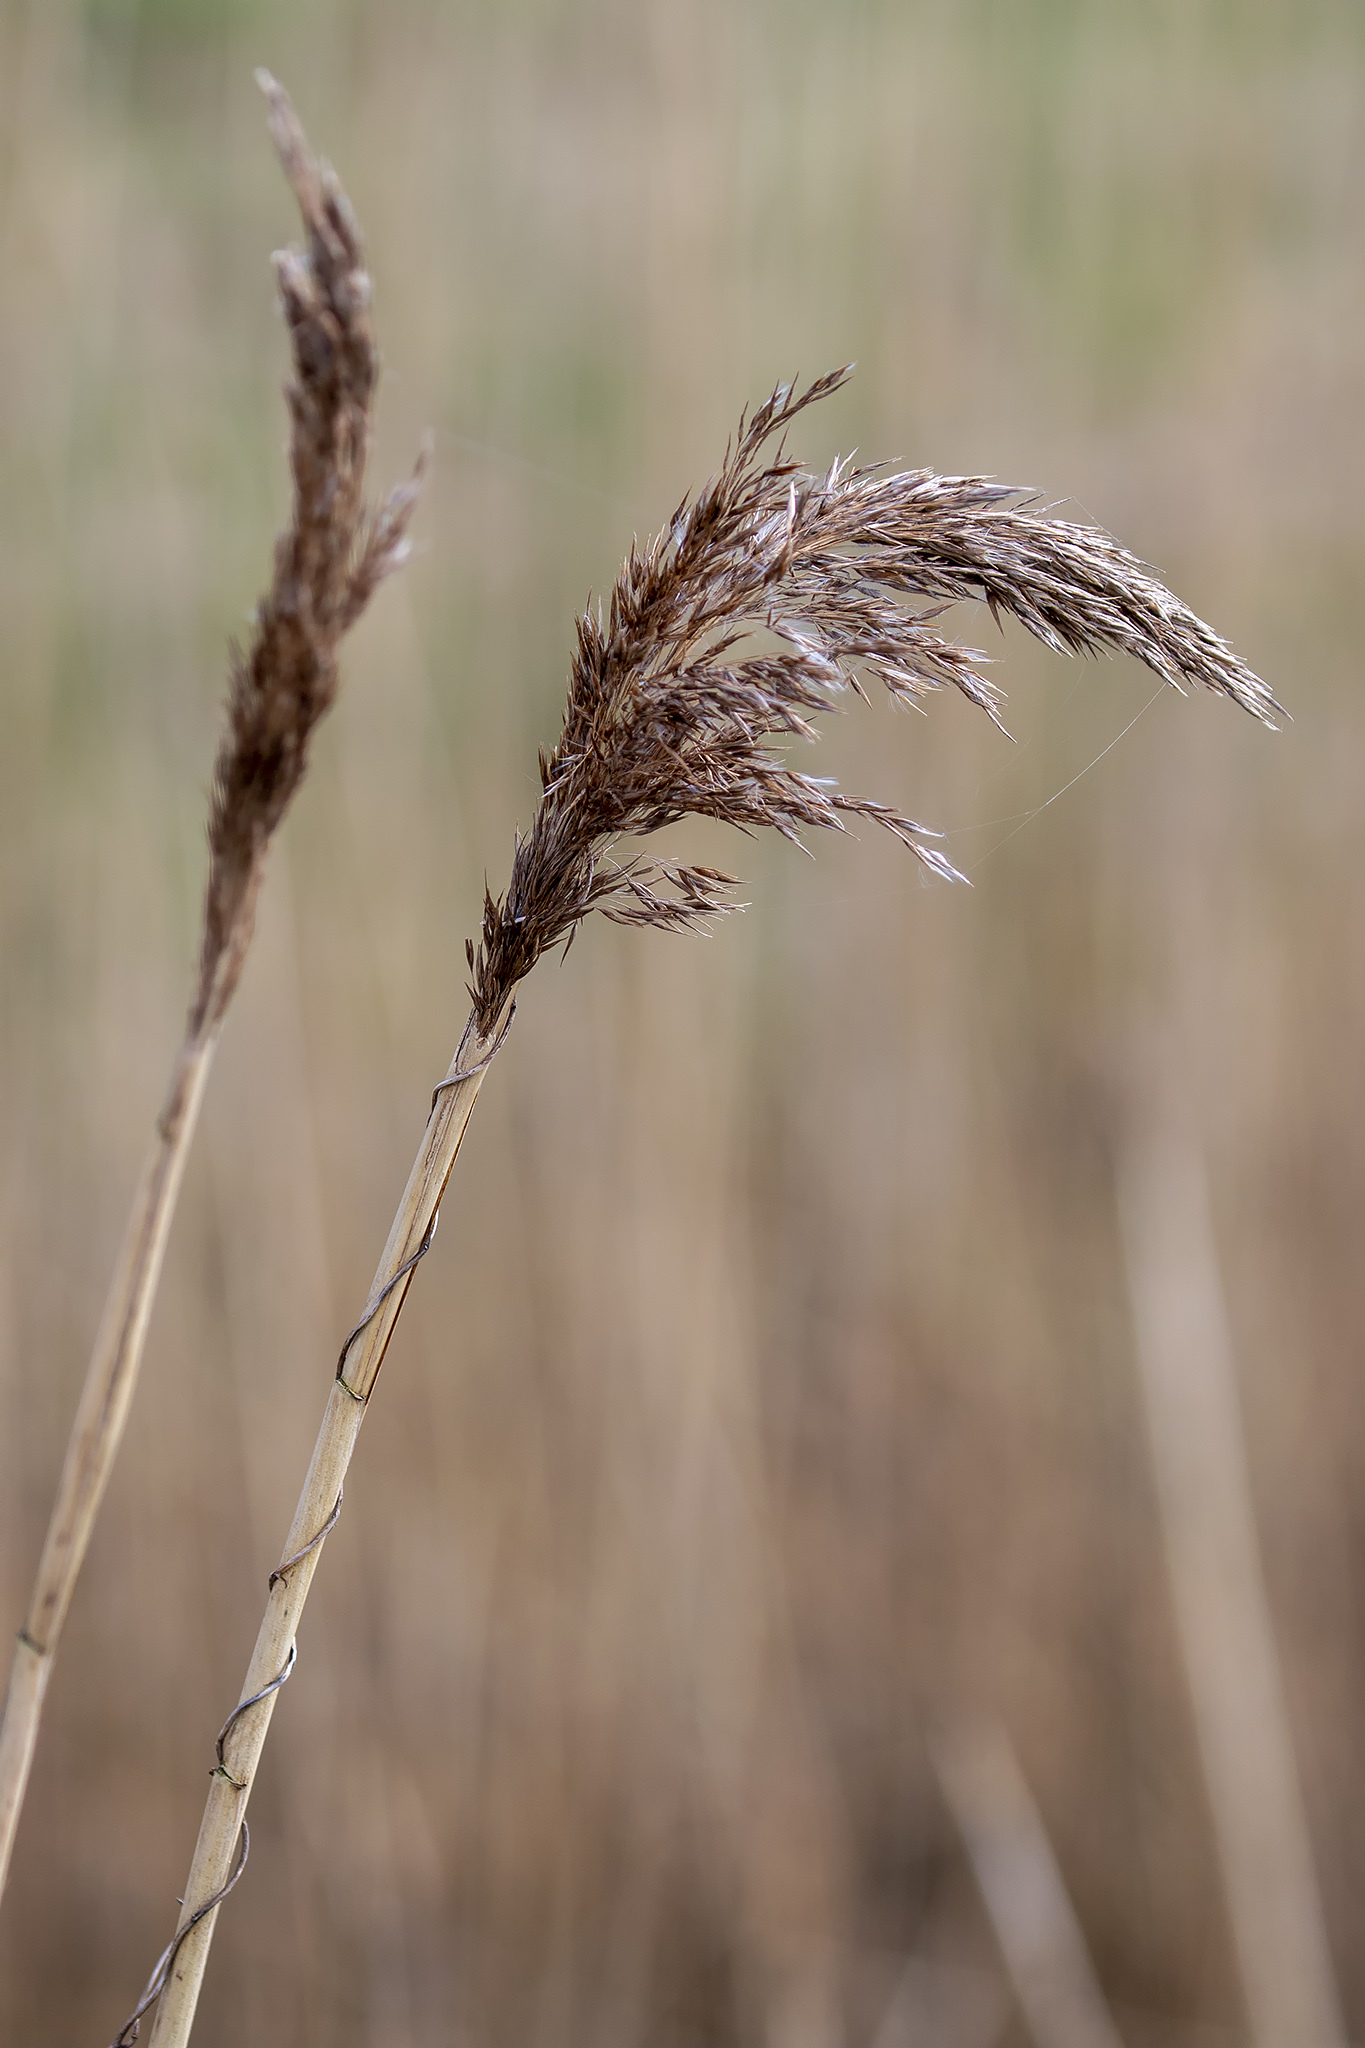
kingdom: Plantae
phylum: Tracheophyta
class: Liliopsida
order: Poales
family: Poaceae
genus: Phragmites
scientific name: Phragmites australis
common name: Common reed
